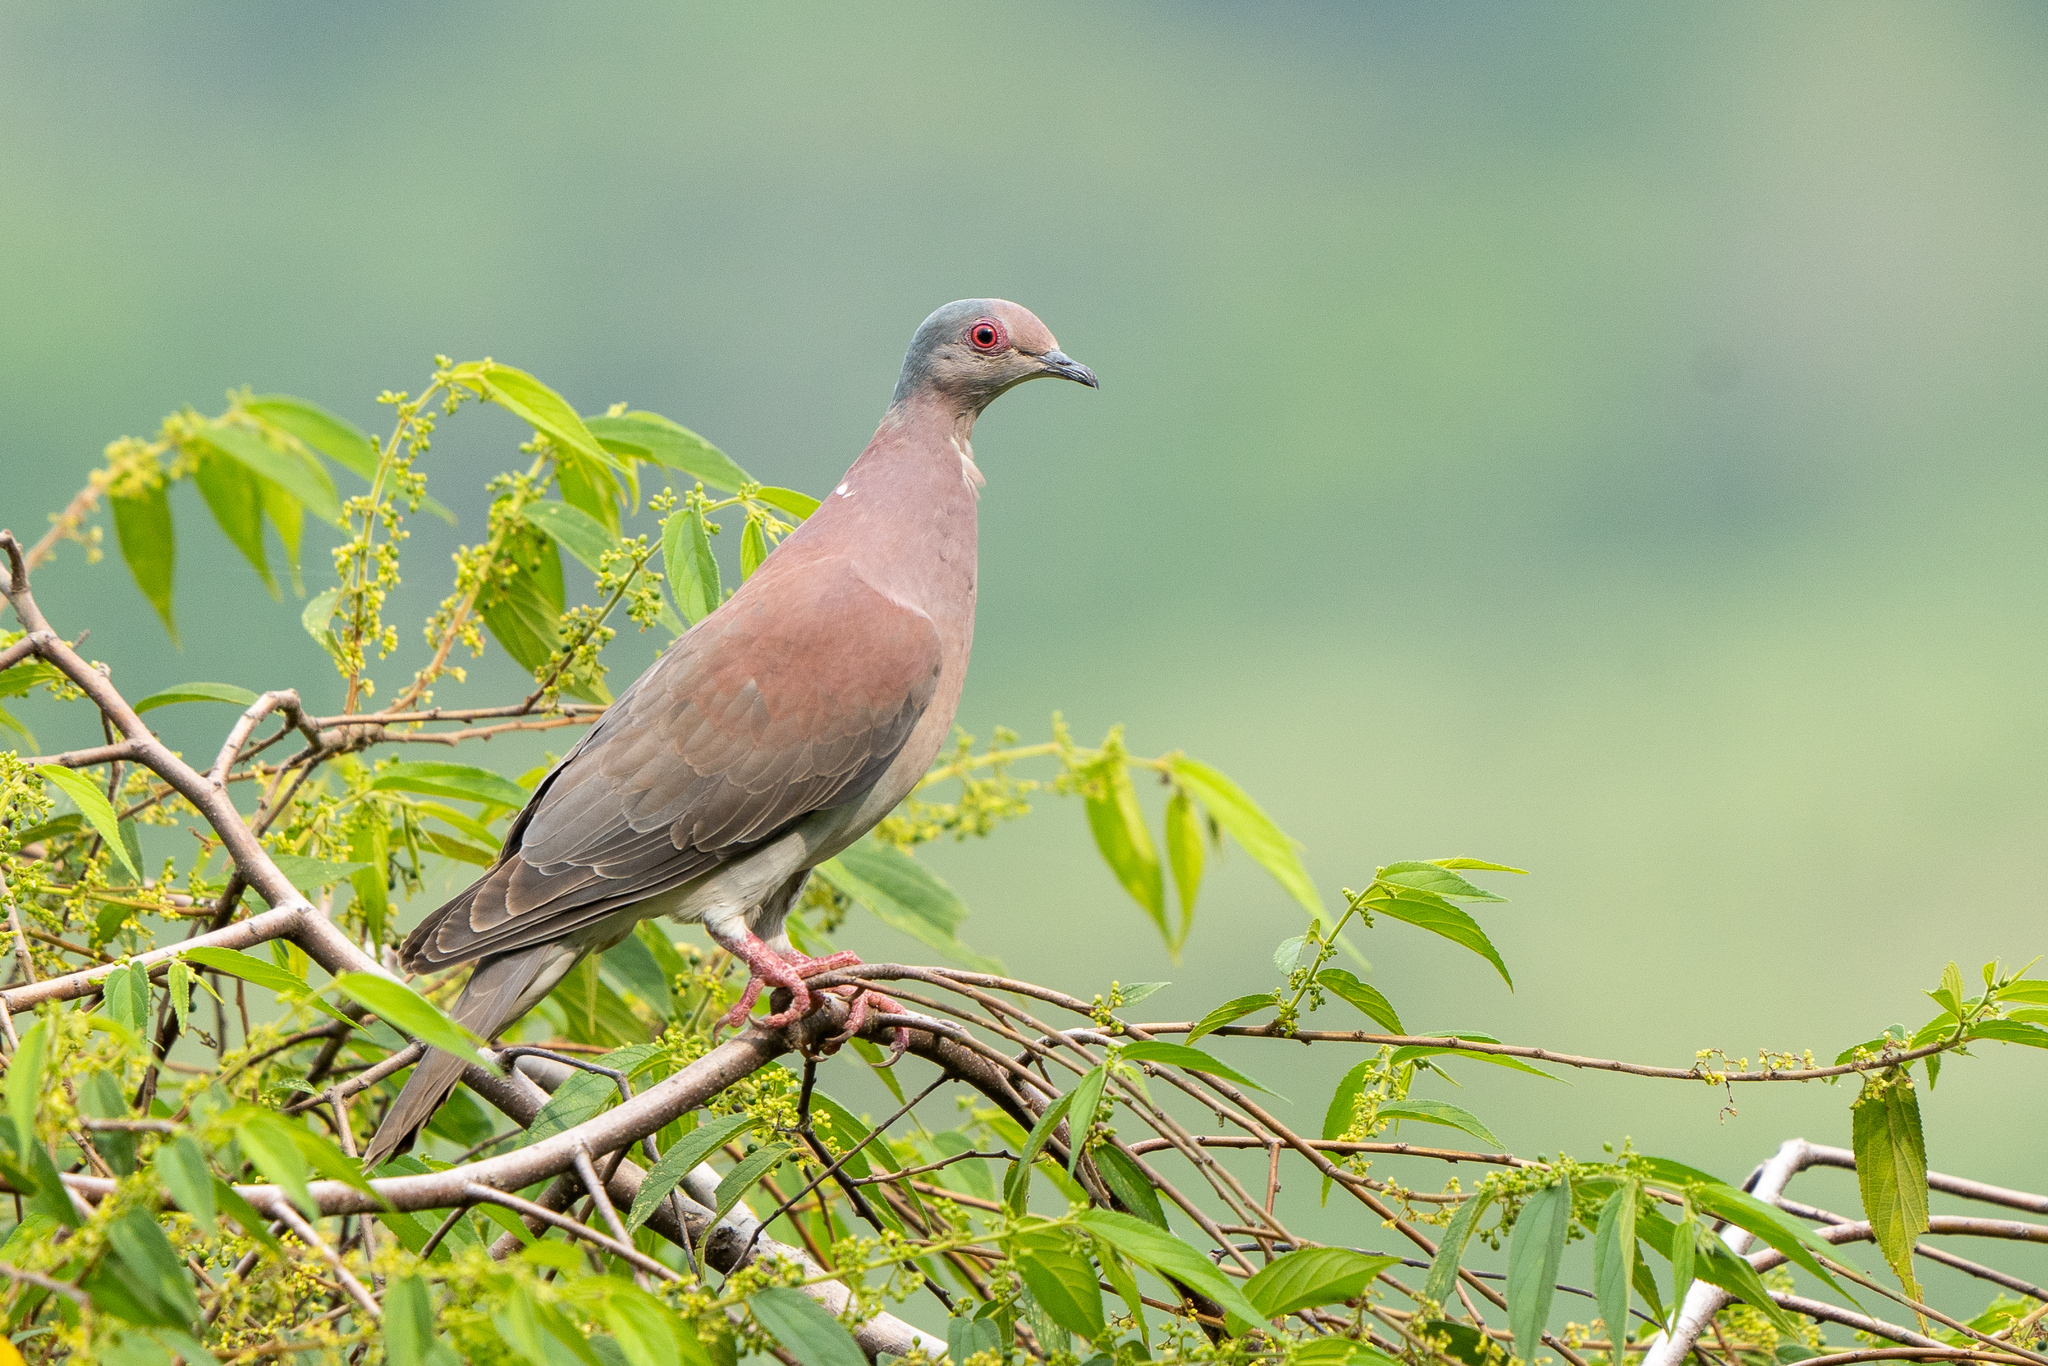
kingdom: Animalia
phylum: Chordata
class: Aves
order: Columbiformes
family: Columbidae
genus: Patagioenas
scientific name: Patagioenas cayennensis
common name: Pale-vented pigeon
